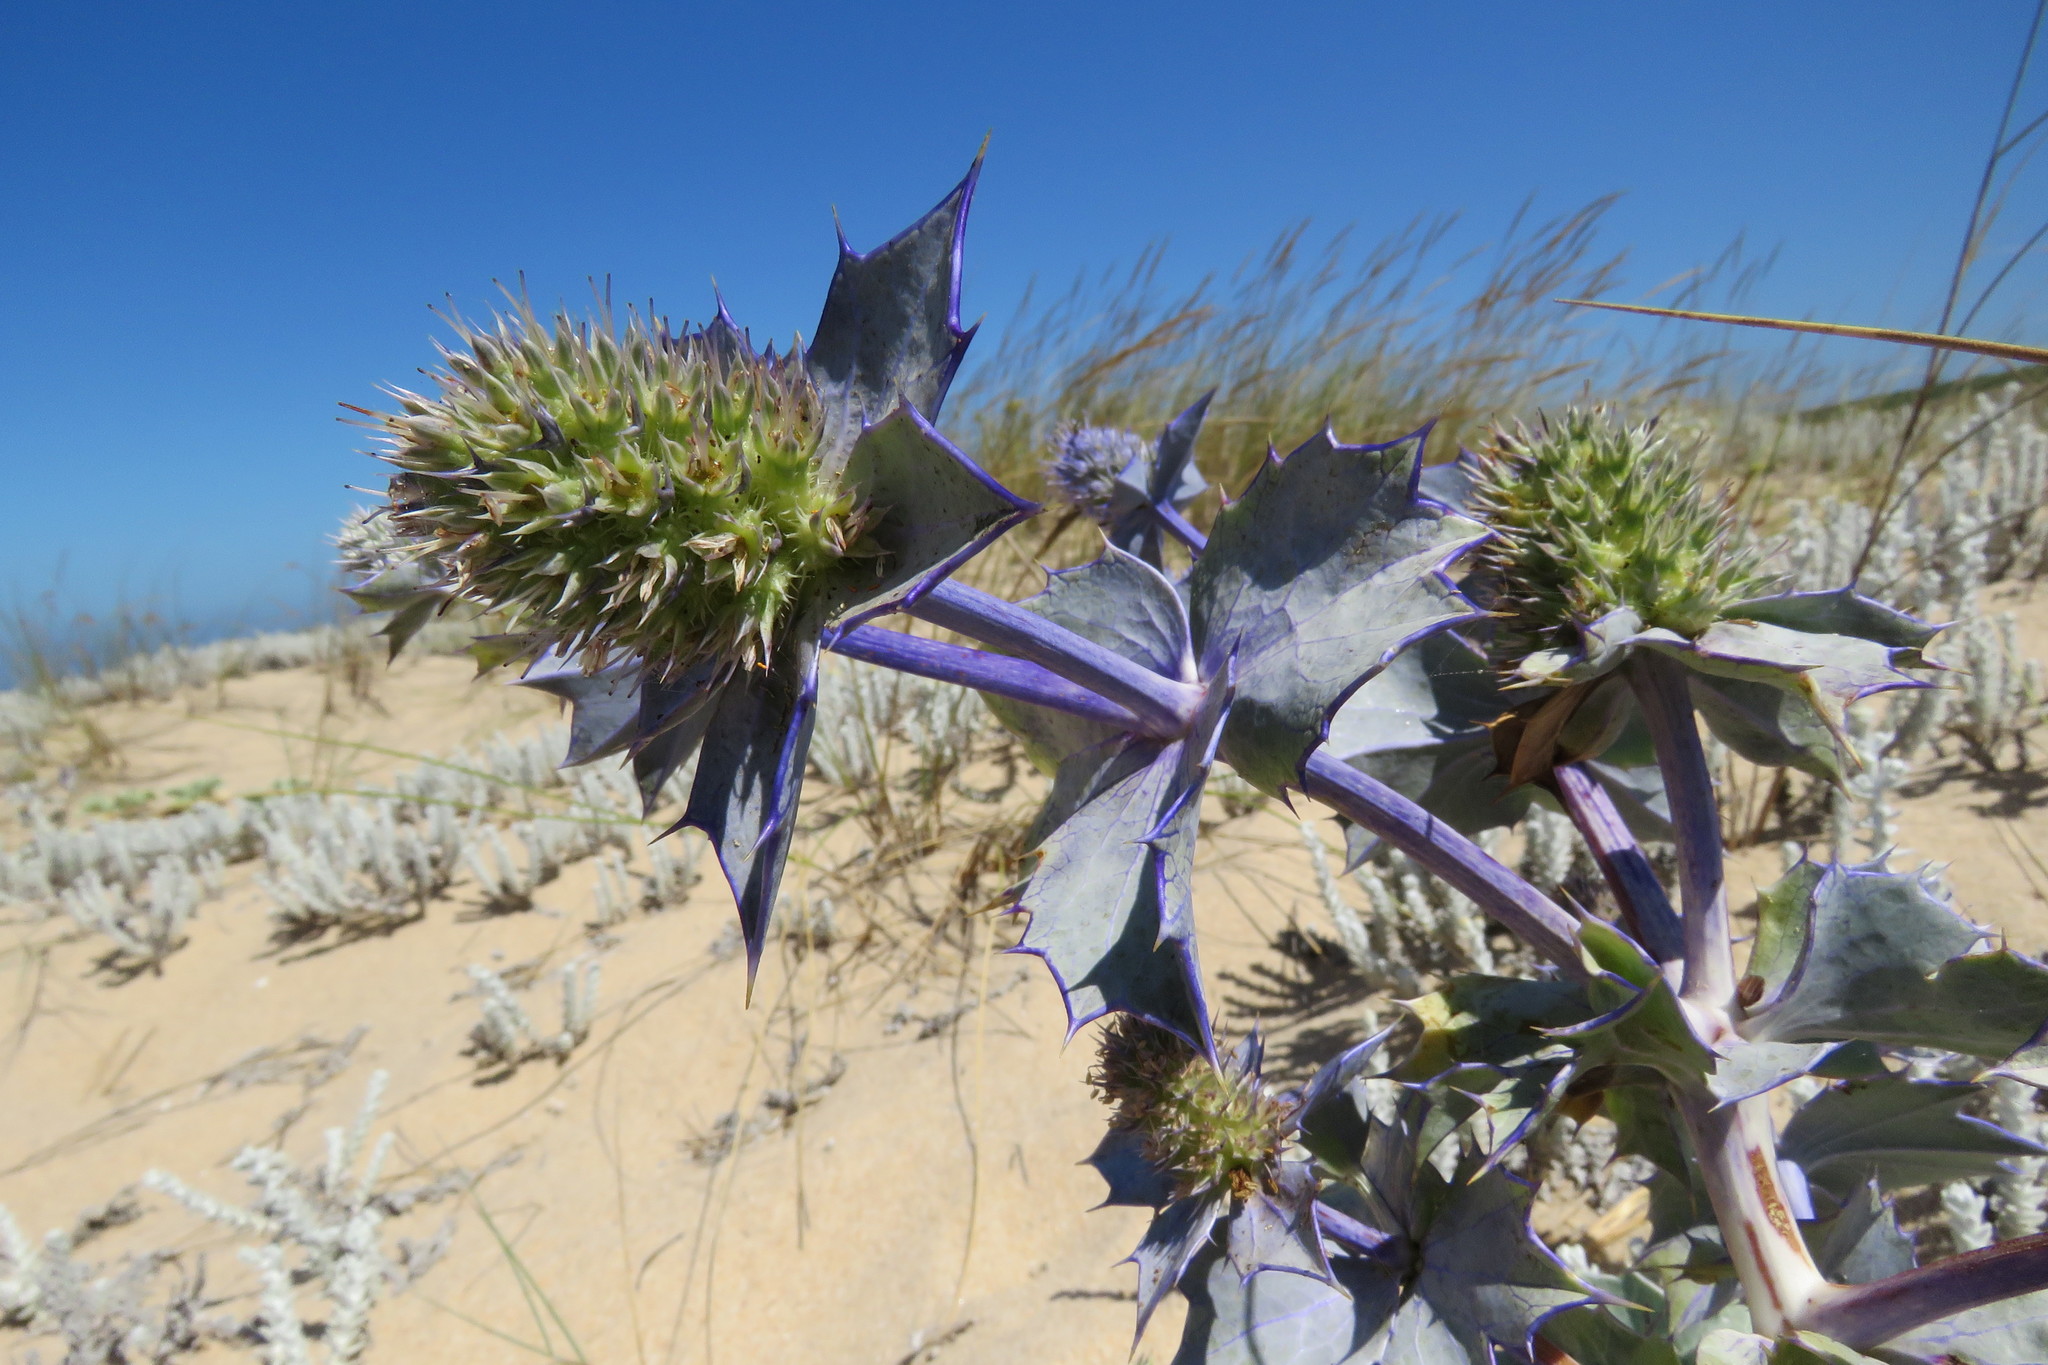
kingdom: Plantae
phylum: Tracheophyta
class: Magnoliopsida
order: Apiales
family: Apiaceae
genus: Eryngium
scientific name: Eryngium maritimum
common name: Sea-holly
